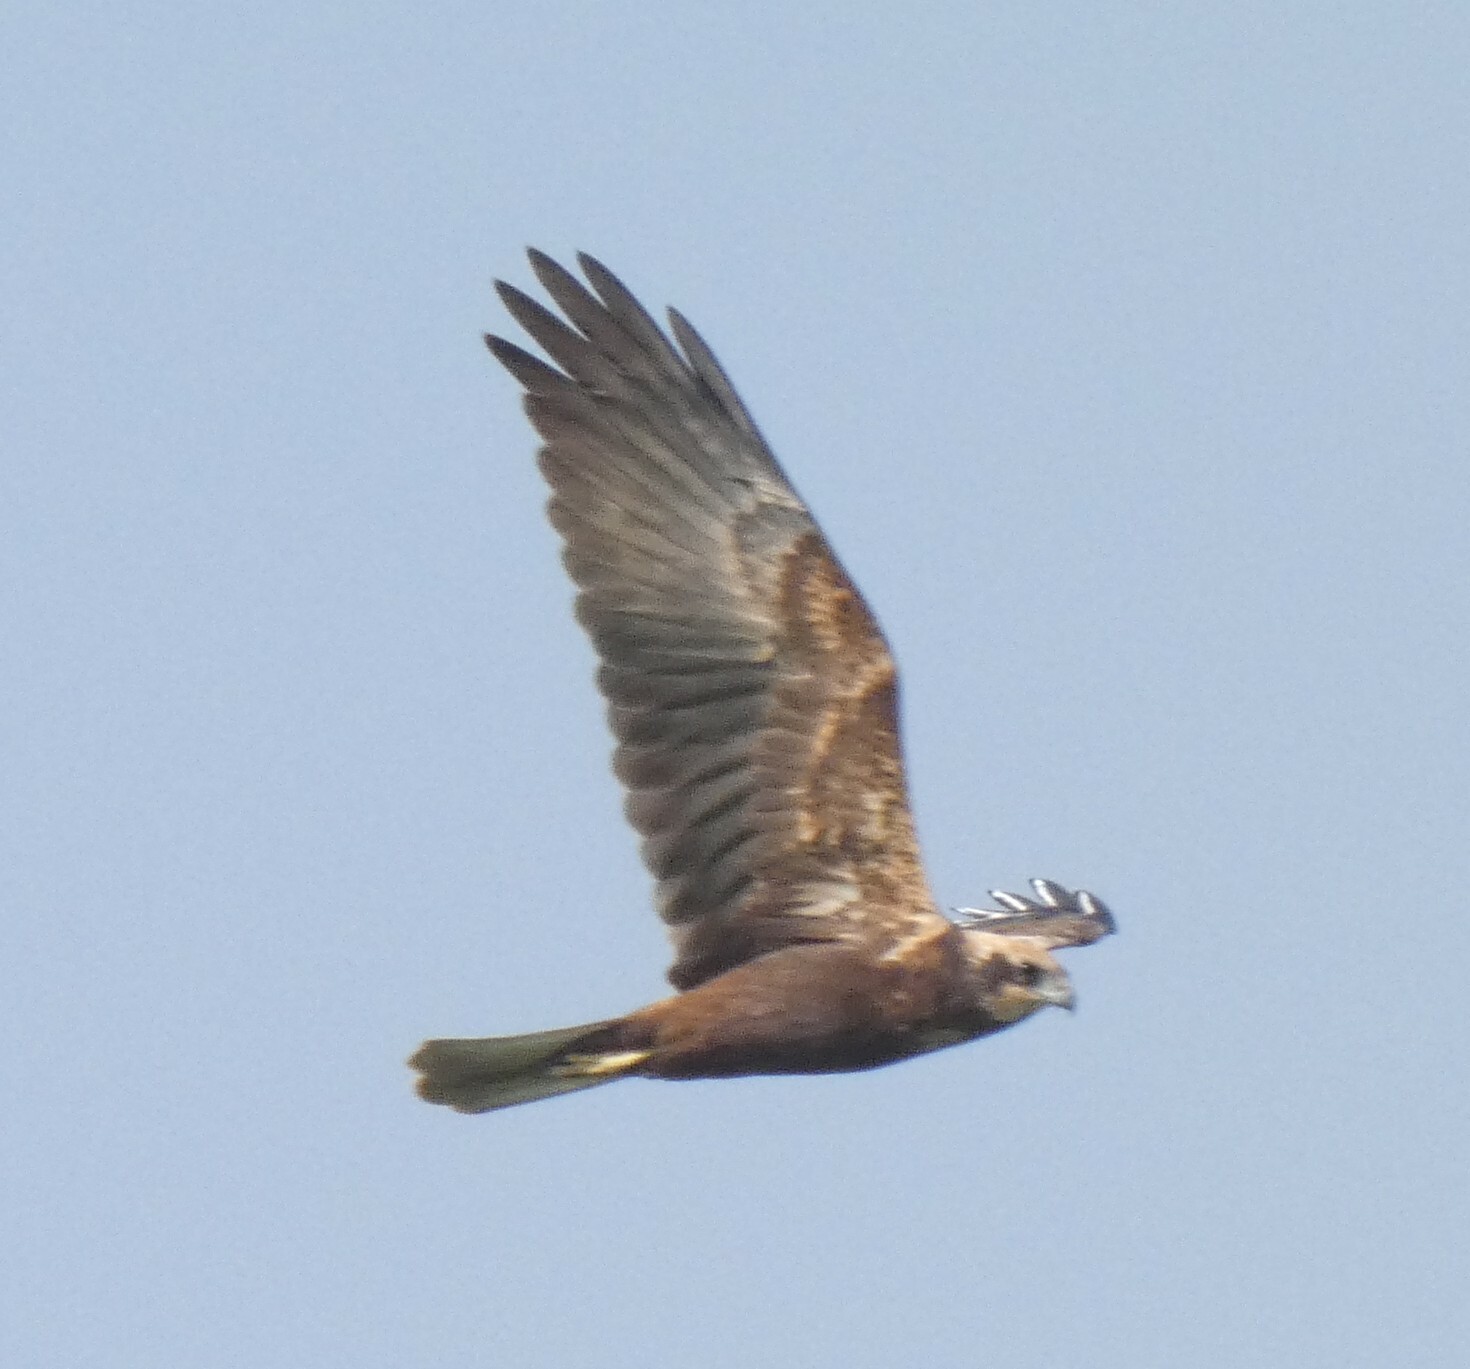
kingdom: Animalia
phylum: Chordata
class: Aves
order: Accipitriformes
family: Accipitridae
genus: Circus
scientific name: Circus aeruginosus
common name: Western marsh harrier
